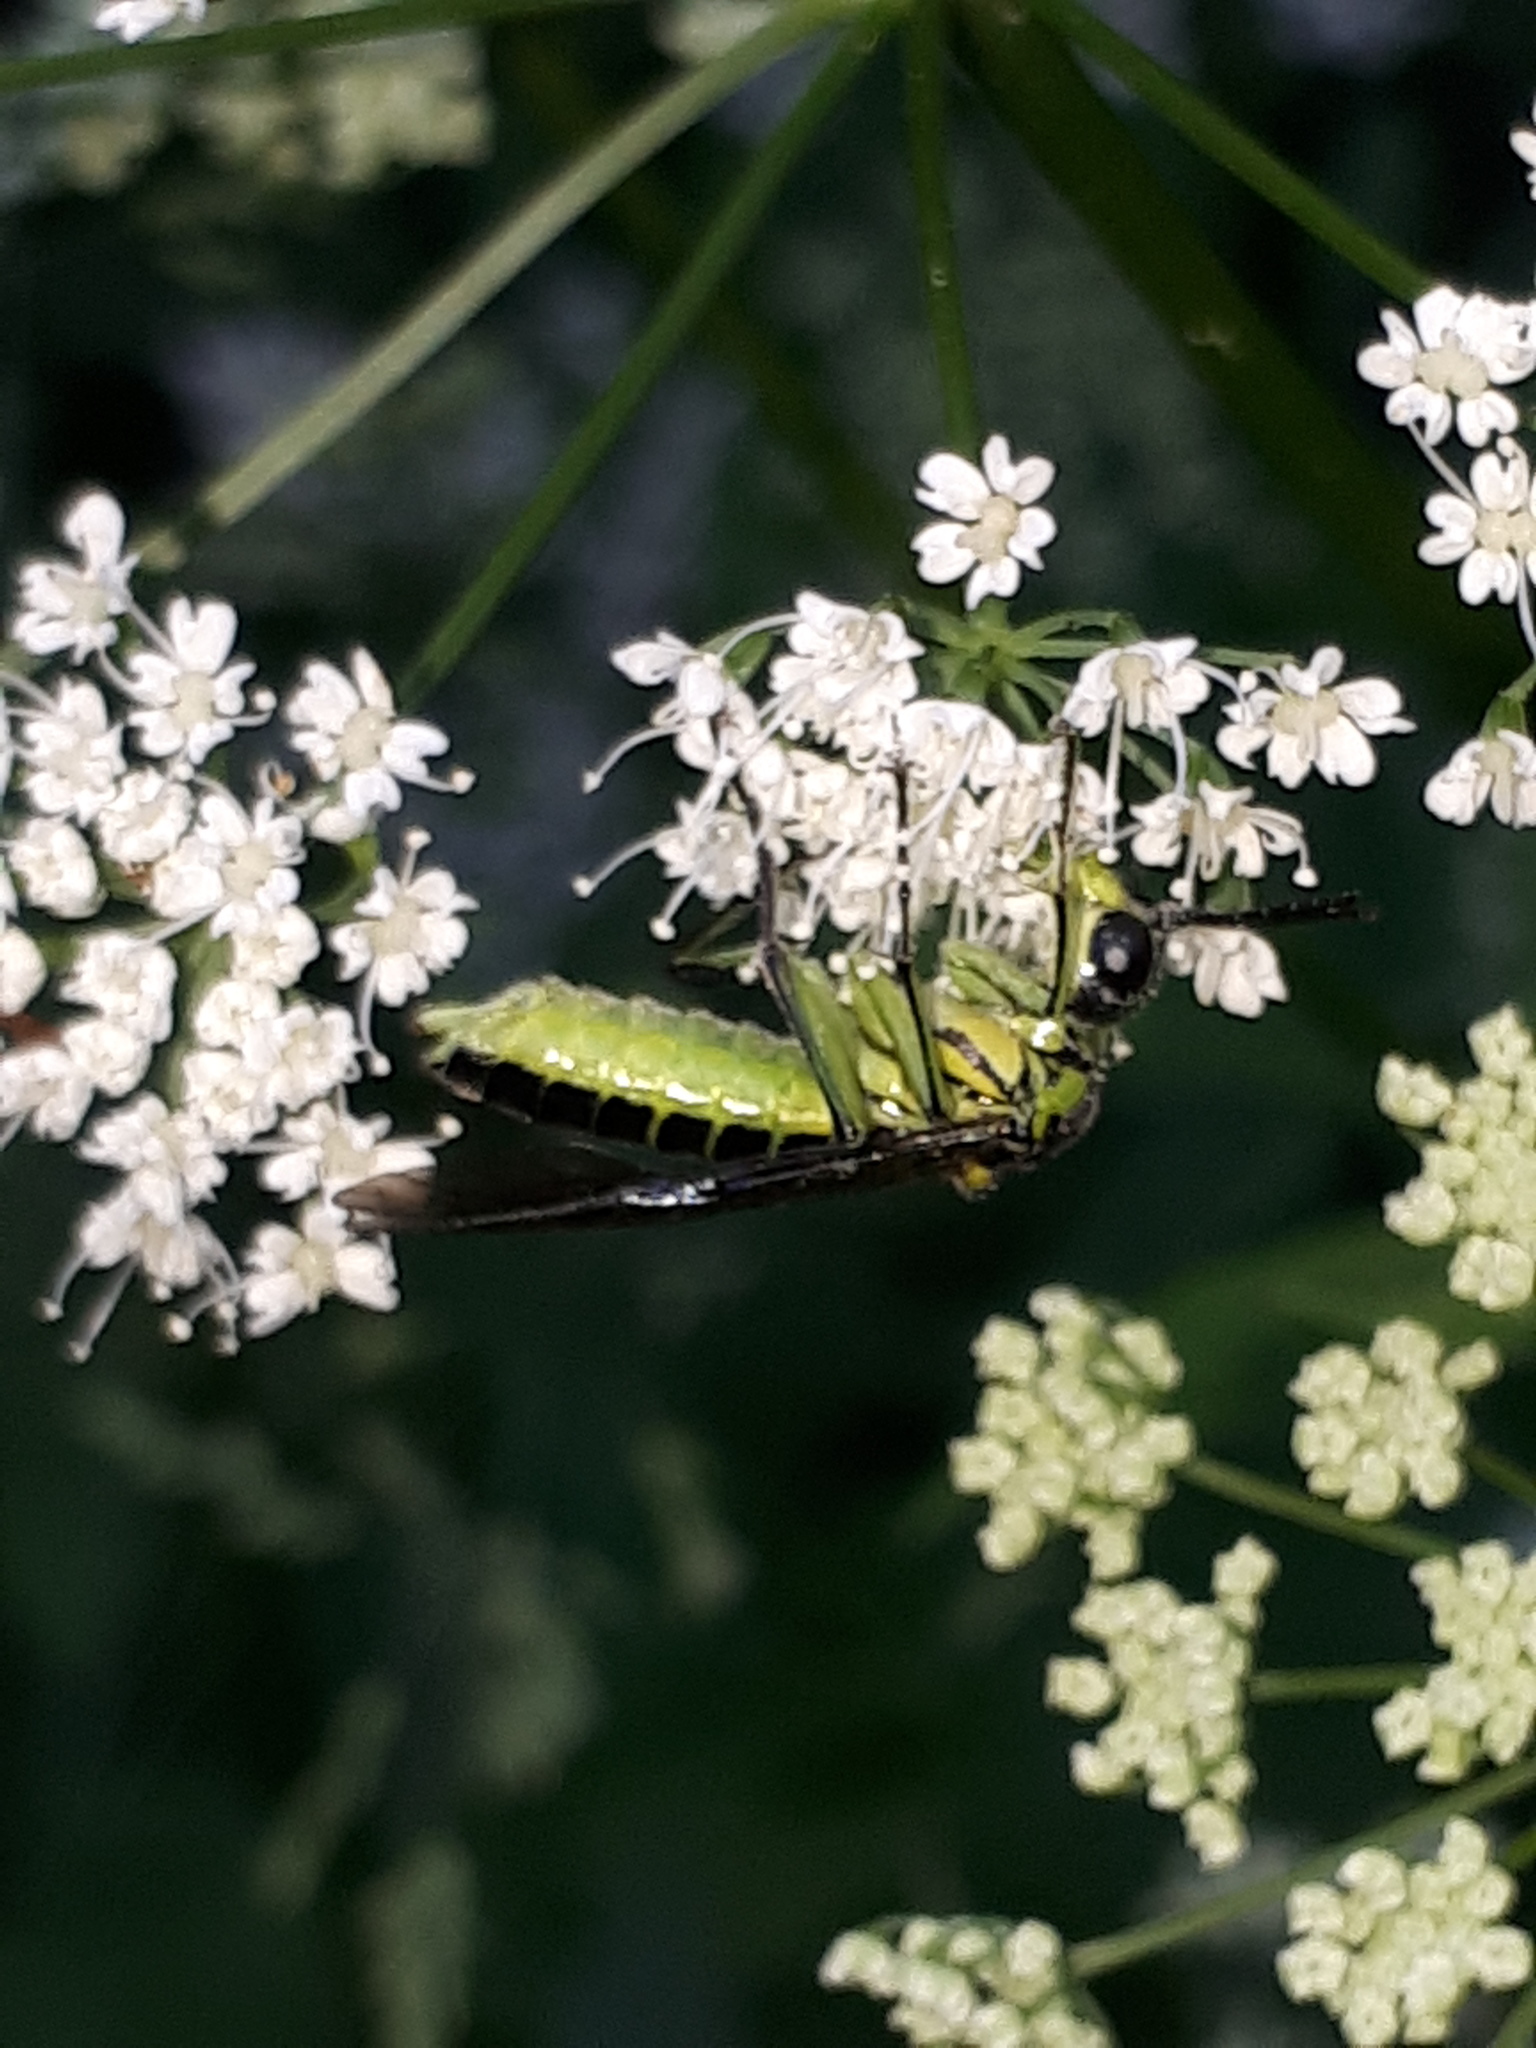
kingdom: Animalia
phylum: Arthropoda
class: Insecta
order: Hymenoptera
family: Tenthredinidae
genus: Tenthredo
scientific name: Tenthredo mesomela
